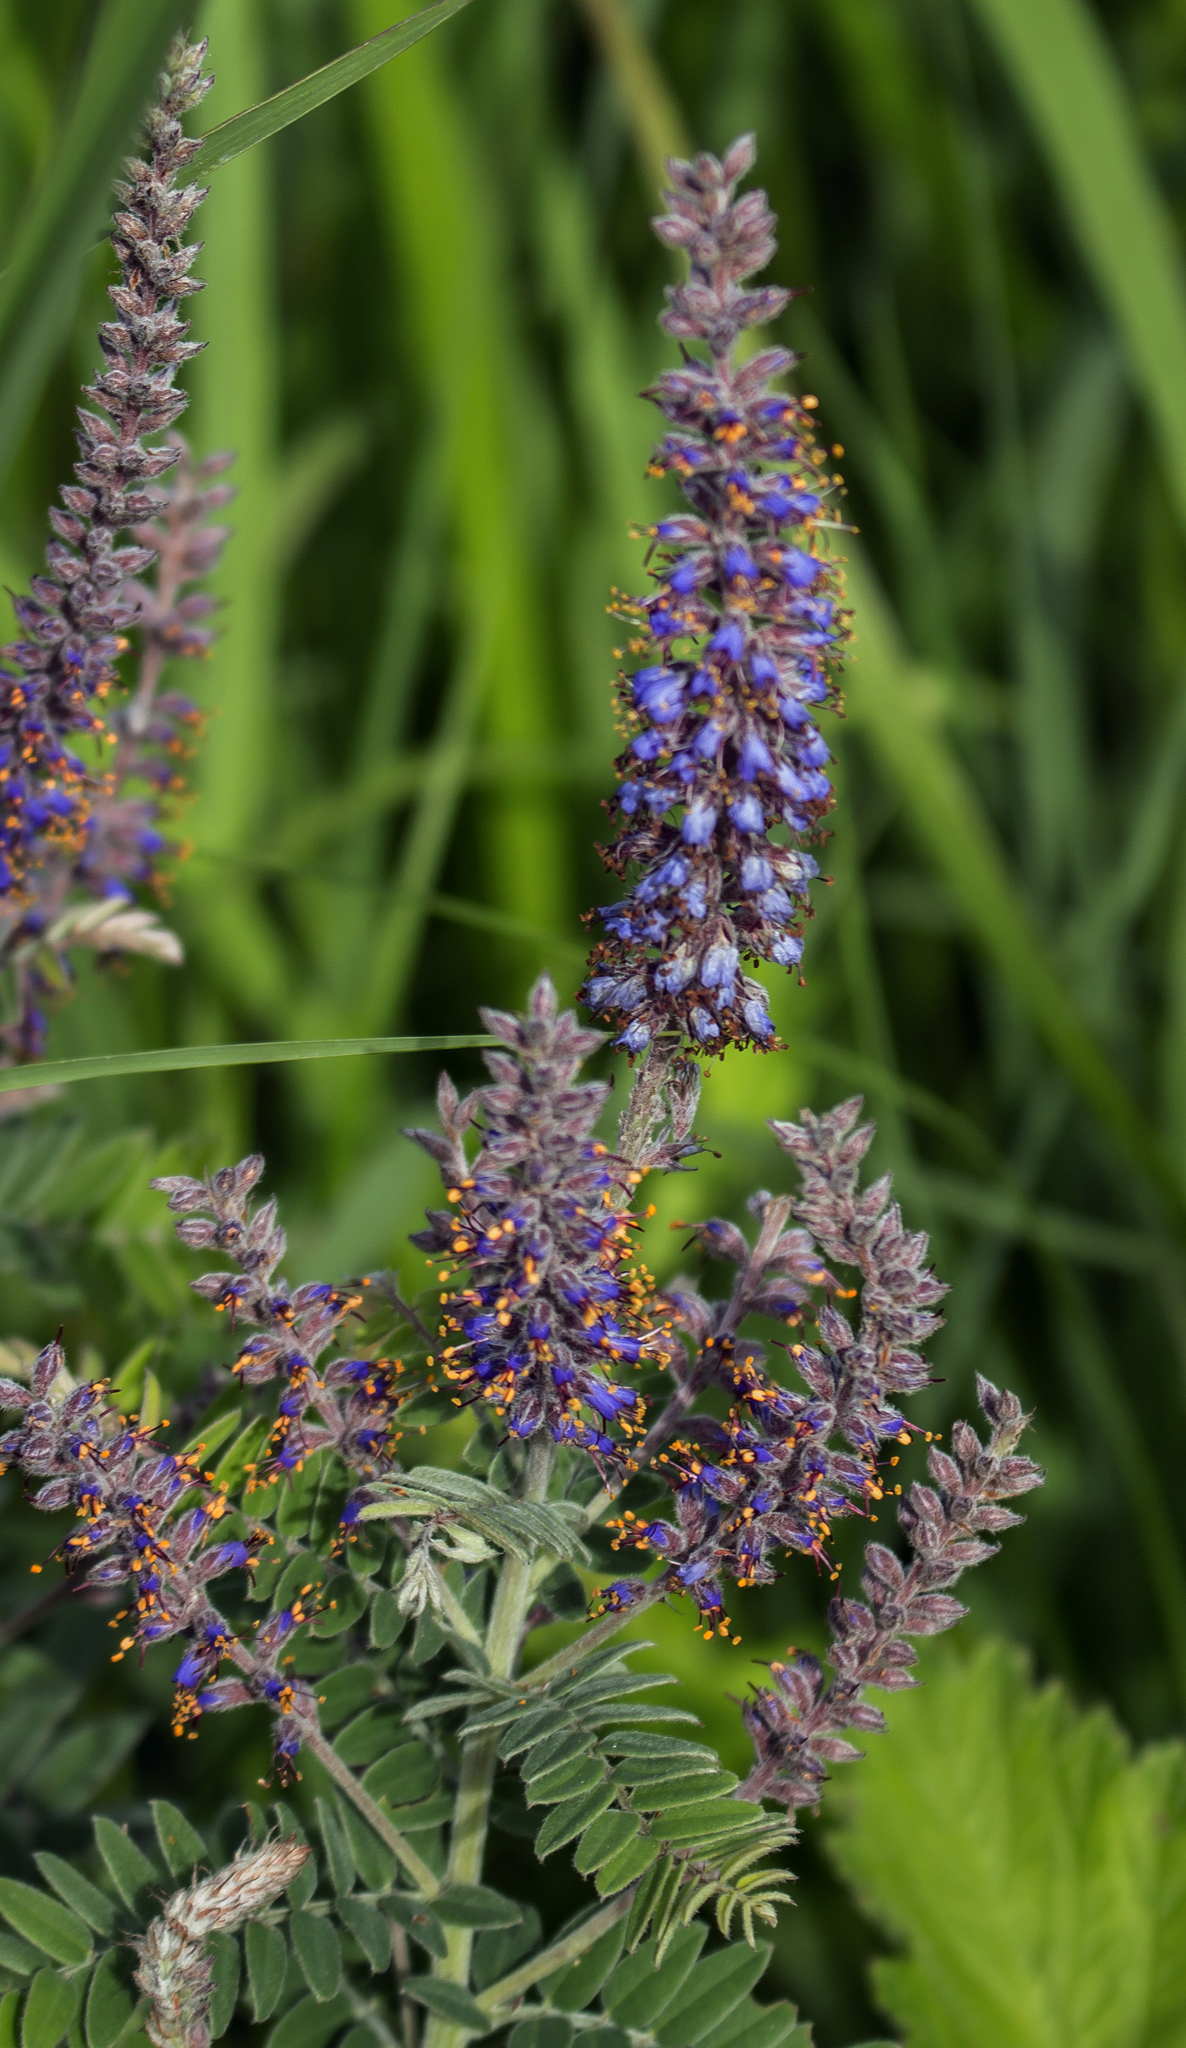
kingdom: Plantae
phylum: Tracheophyta
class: Magnoliopsida
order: Fabales
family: Fabaceae
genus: Amorpha
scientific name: Amorpha canescens
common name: Leadplant
